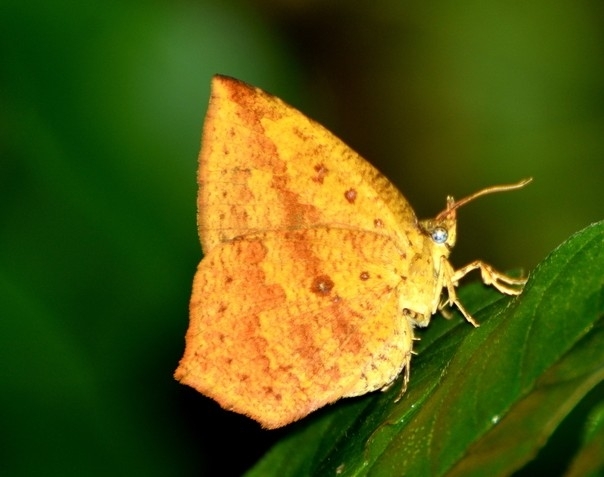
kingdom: Animalia
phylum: Arthropoda
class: Insecta
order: Lepidoptera
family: Callidulidae
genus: Tetragonus
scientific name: Tetragonus catamitus
